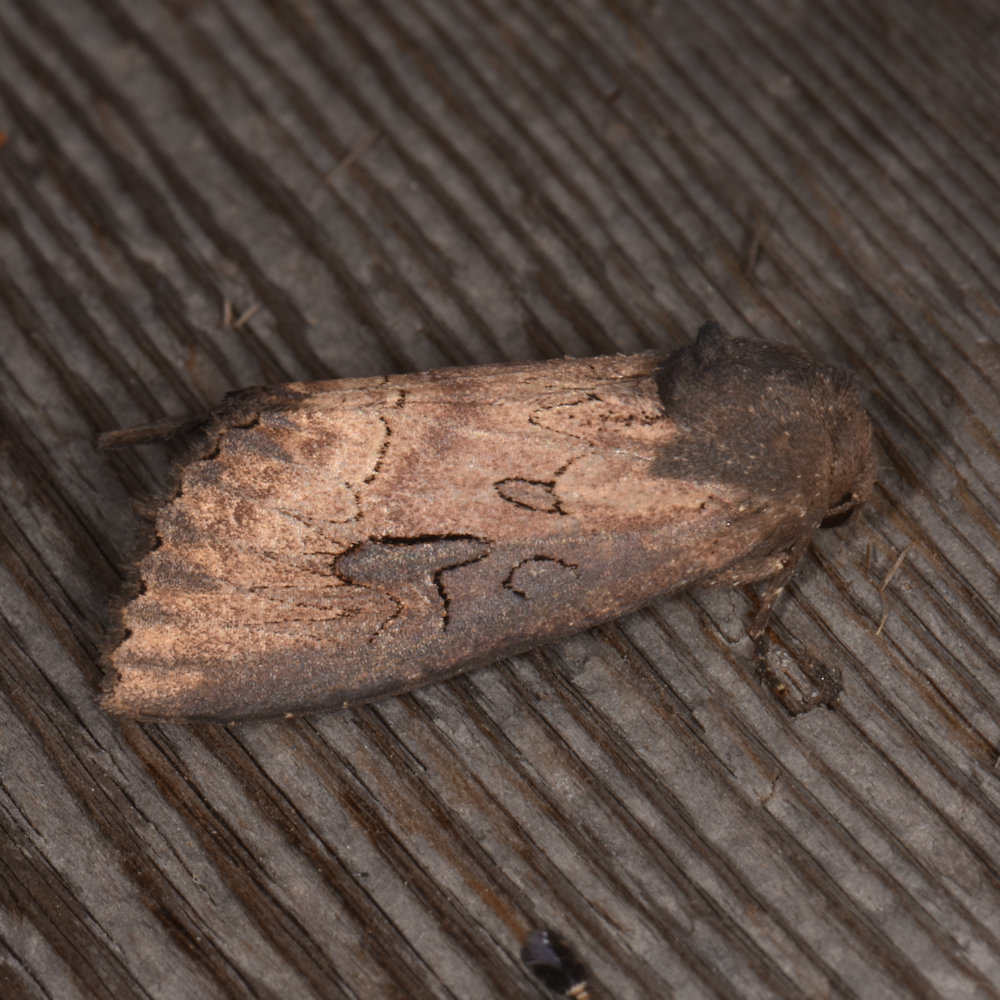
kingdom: Animalia
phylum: Arthropoda
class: Insecta
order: Lepidoptera
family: Noctuidae
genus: Macronoctua
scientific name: Macronoctua onusta
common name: Iris borer
